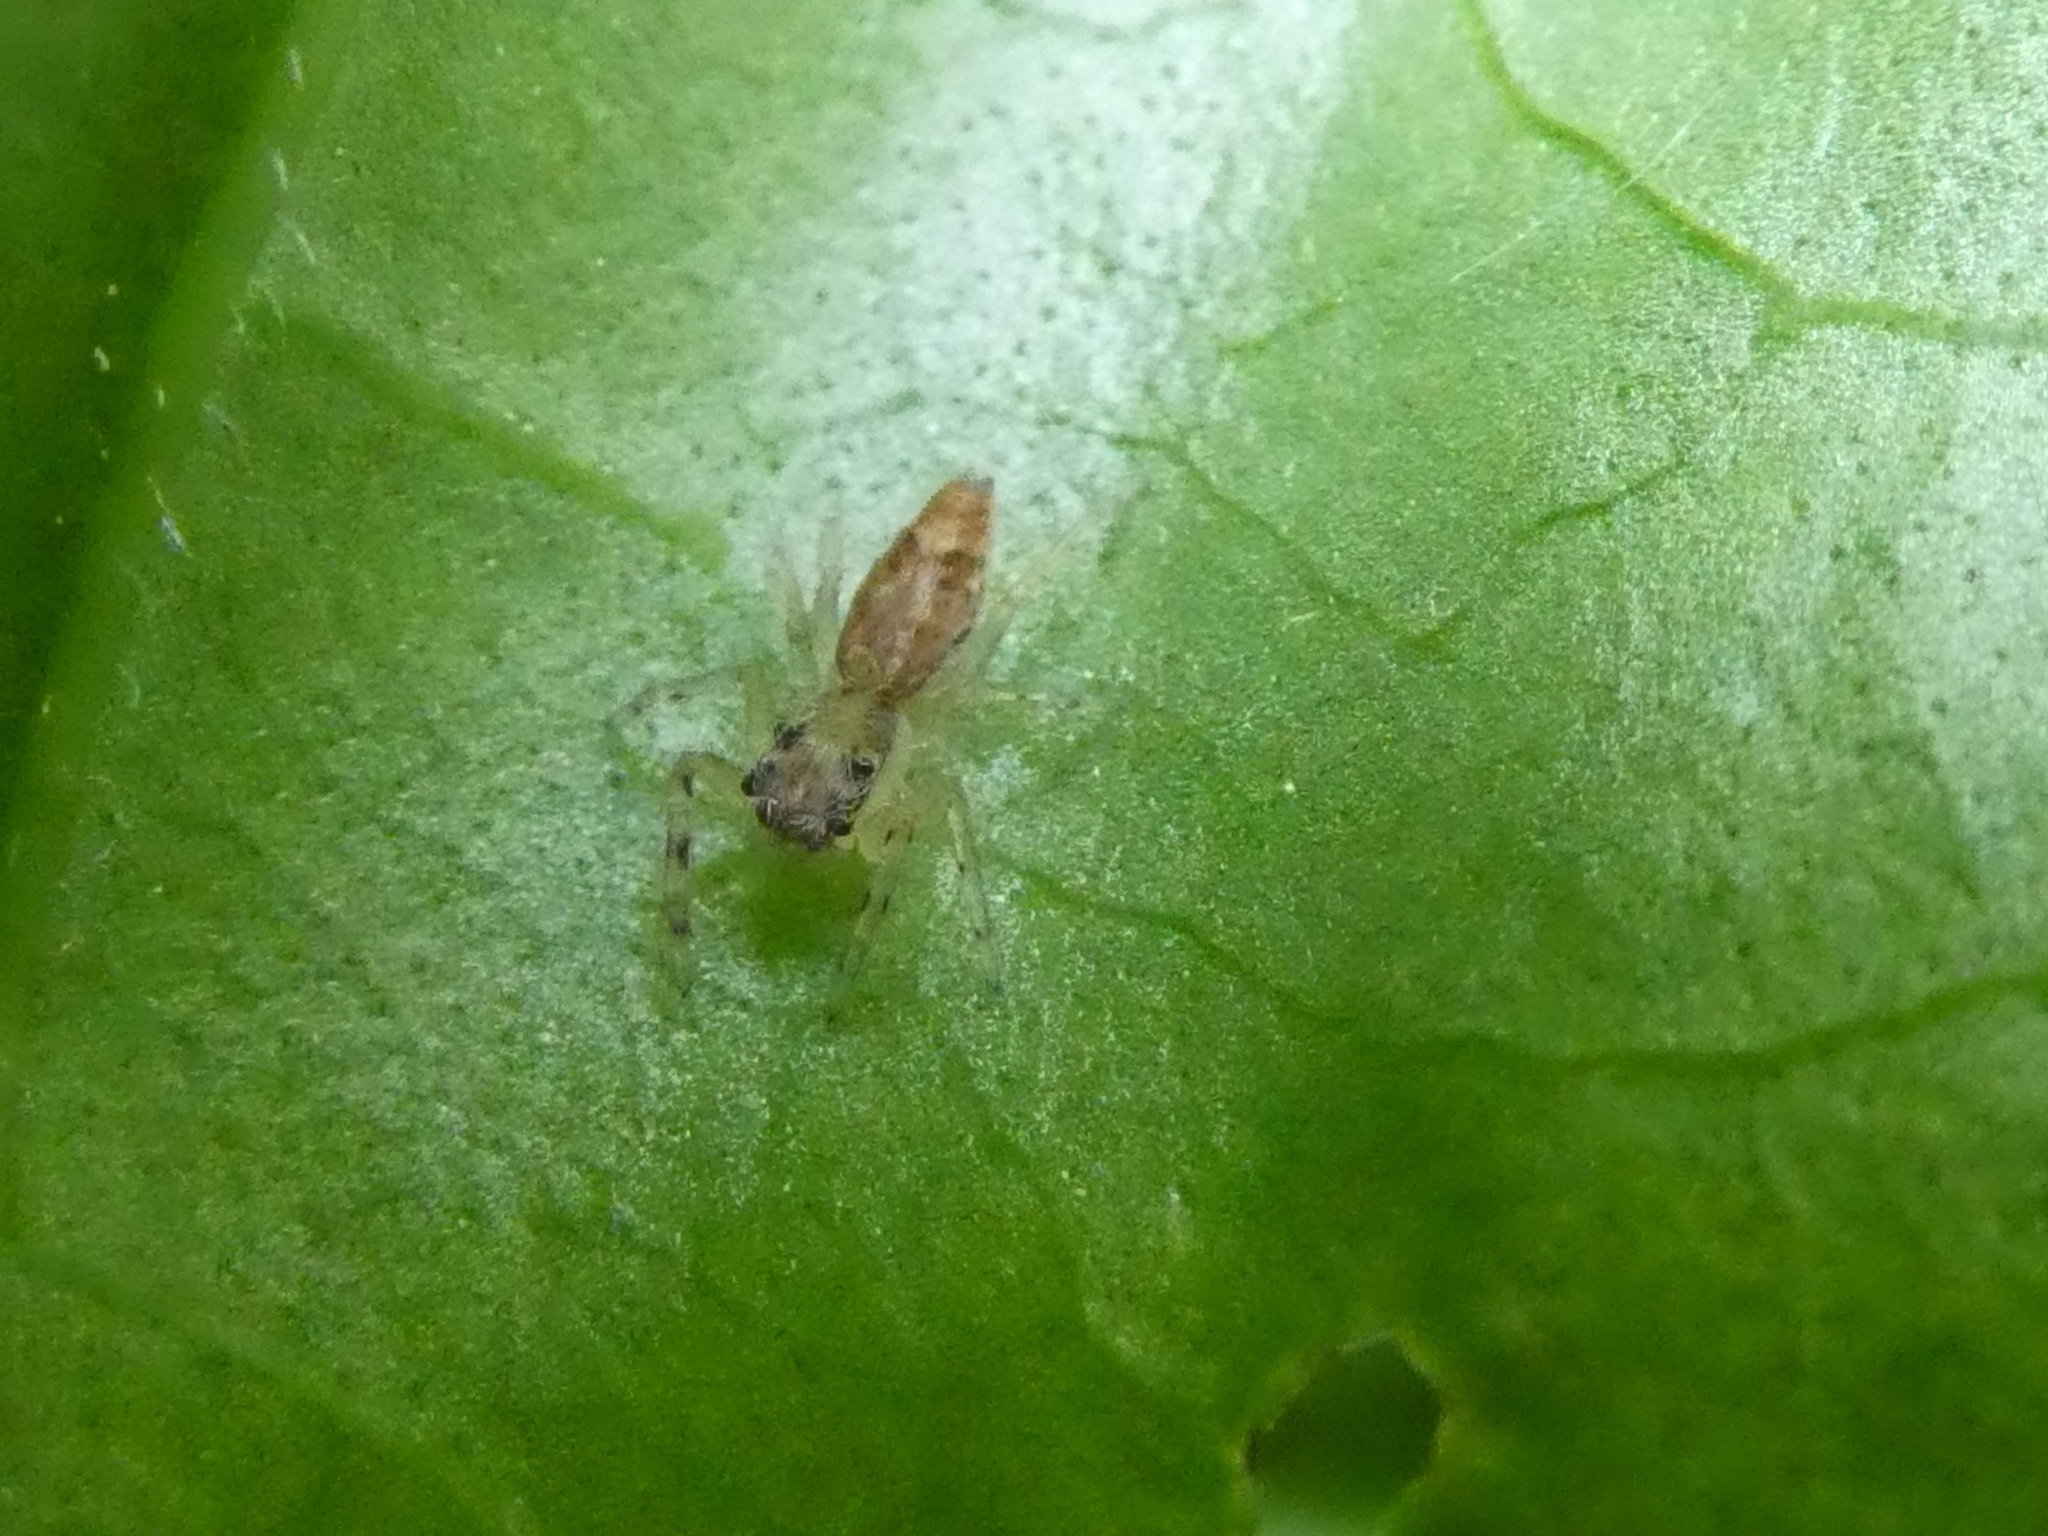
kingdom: Animalia
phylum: Arthropoda
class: Arachnida
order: Araneae
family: Salticidae
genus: Helpis
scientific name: Helpis minitabunda
